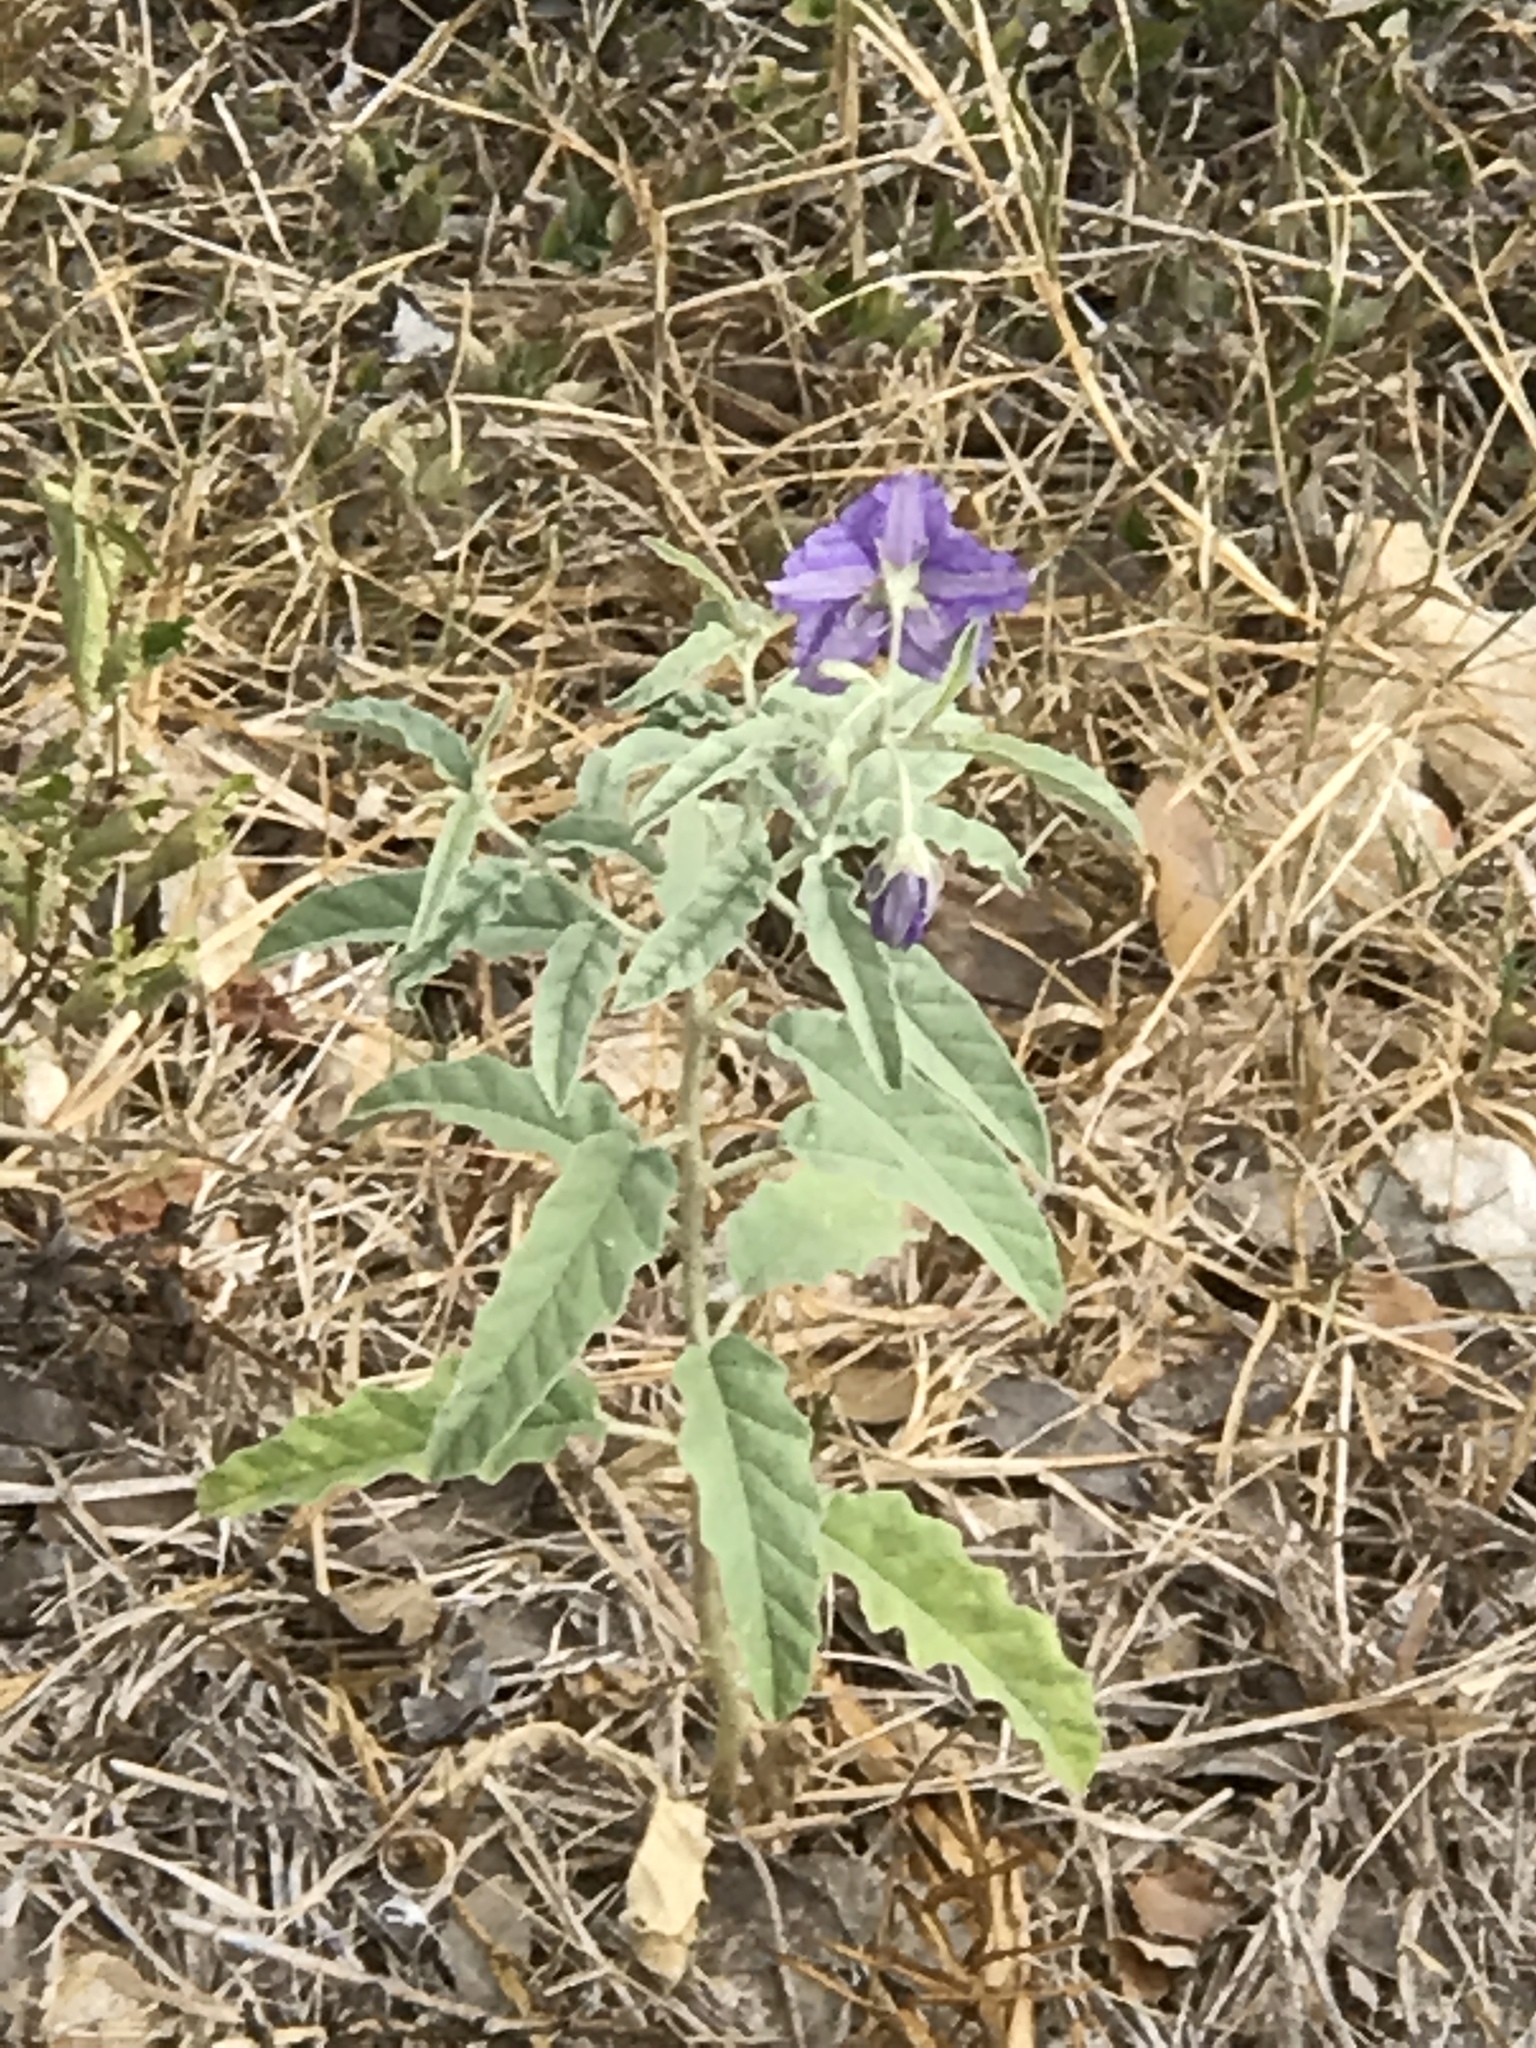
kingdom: Plantae
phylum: Tracheophyta
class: Magnoliopsida
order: Solanales
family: Solanaceae
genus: Solanum
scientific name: Solanum elaeagnifolium
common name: Silverleaf nightshade
